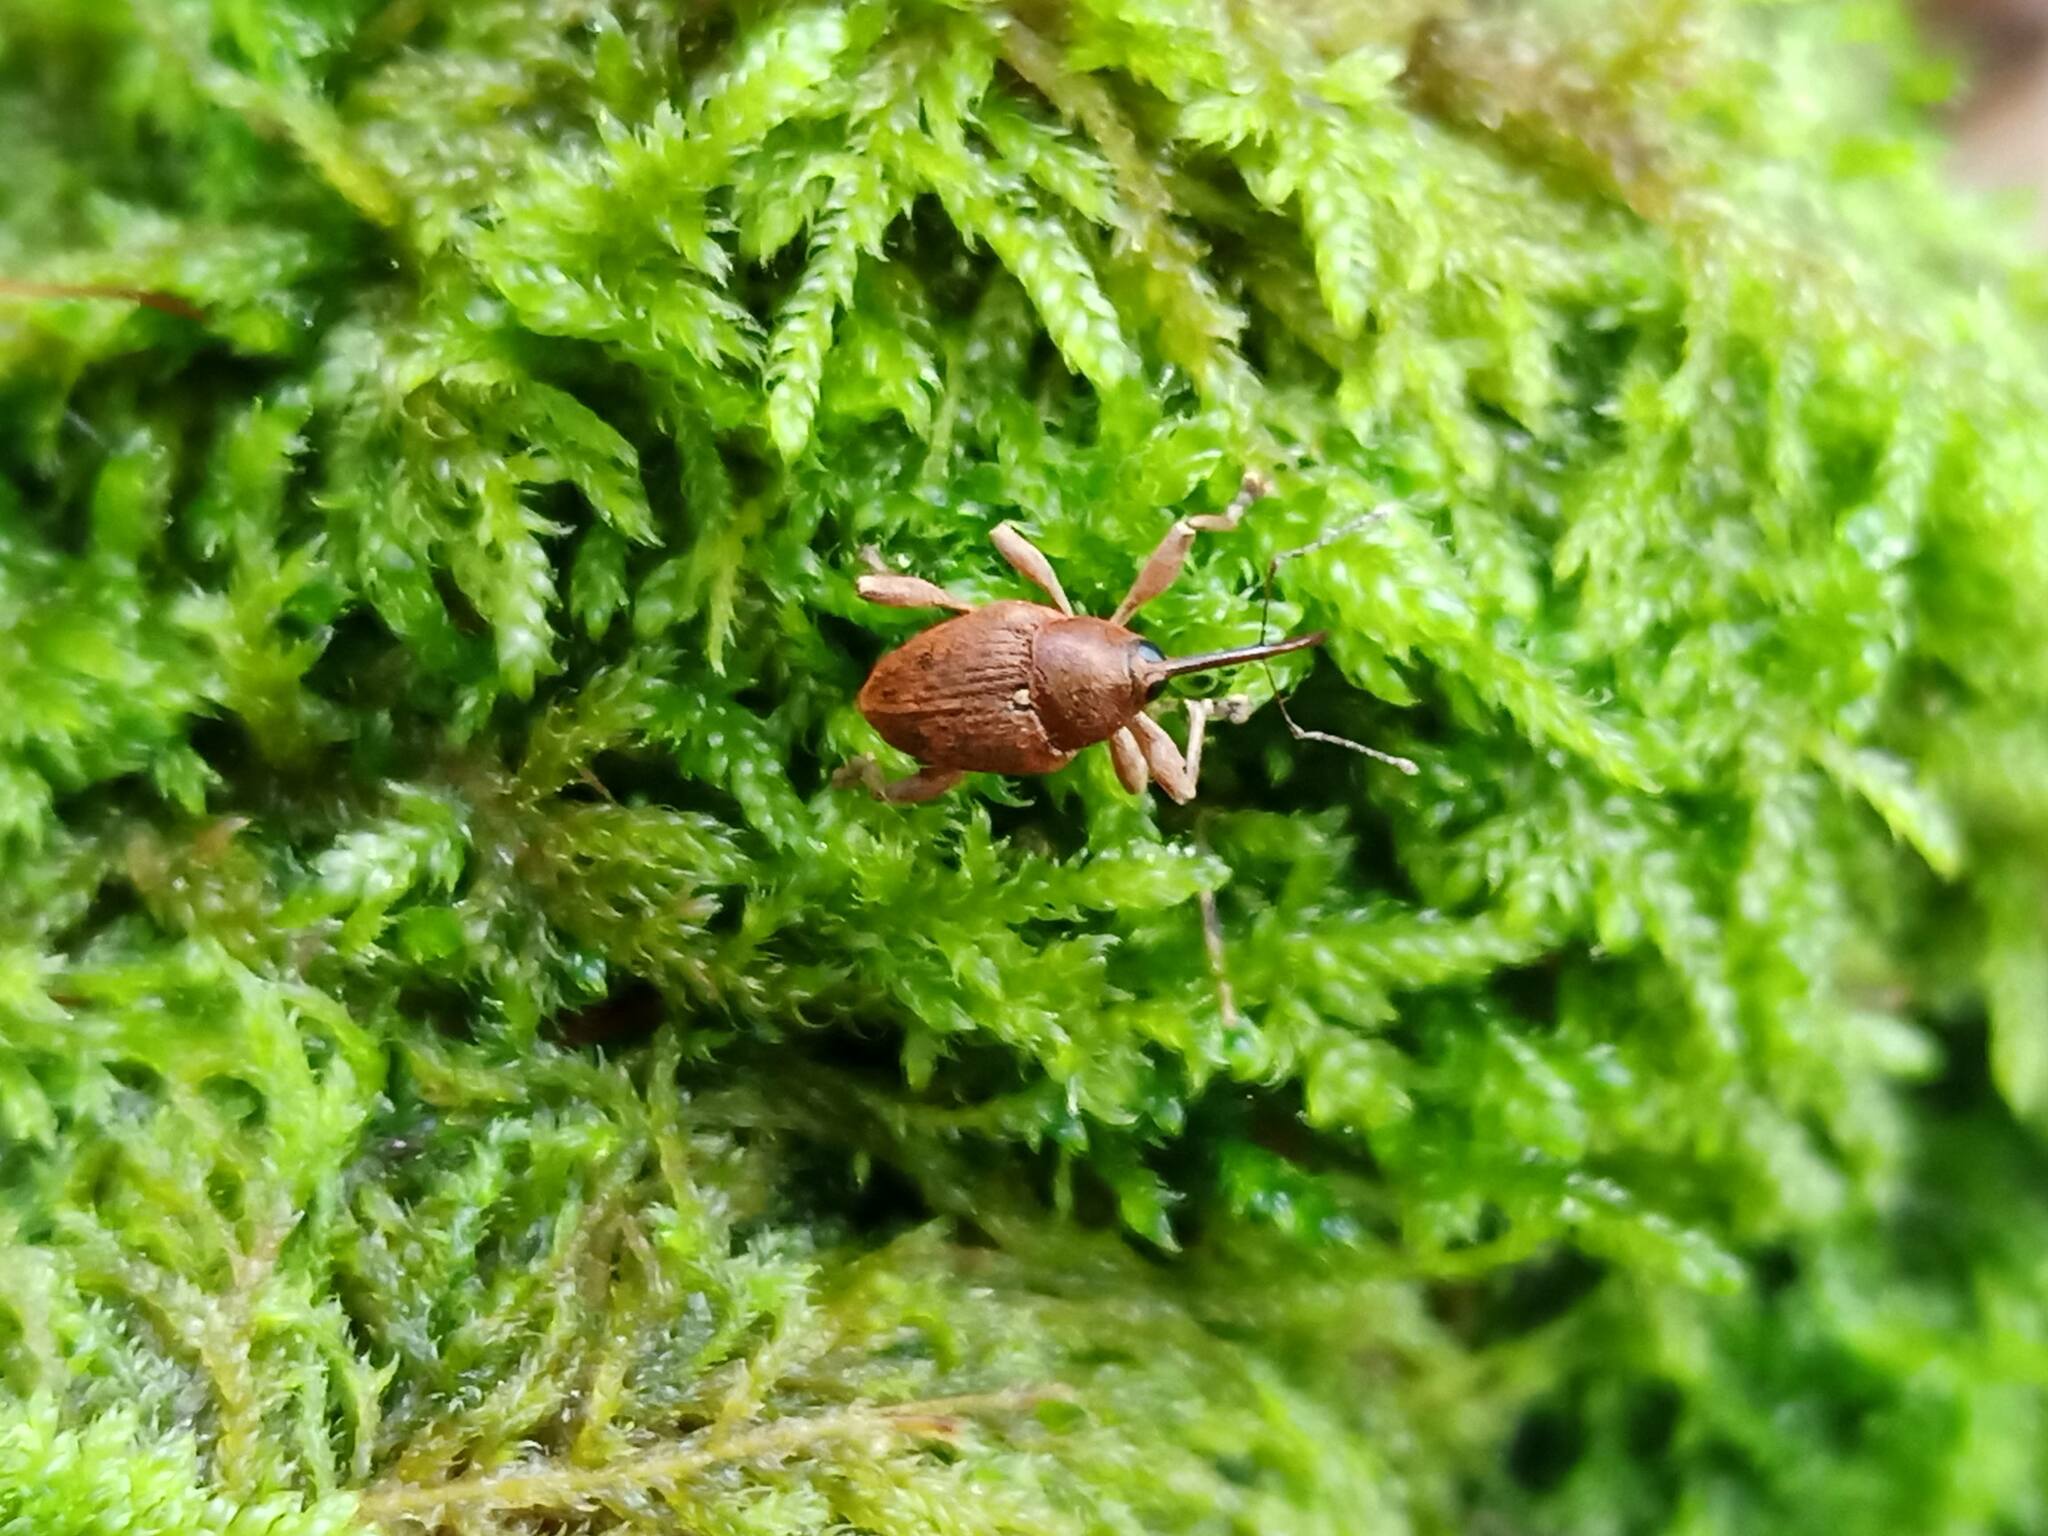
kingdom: Animalia
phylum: Arthropoda
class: Insecta
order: Coleoptera
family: Curculionidae
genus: Curculio
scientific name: Curculio nucum
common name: Nut weevil
